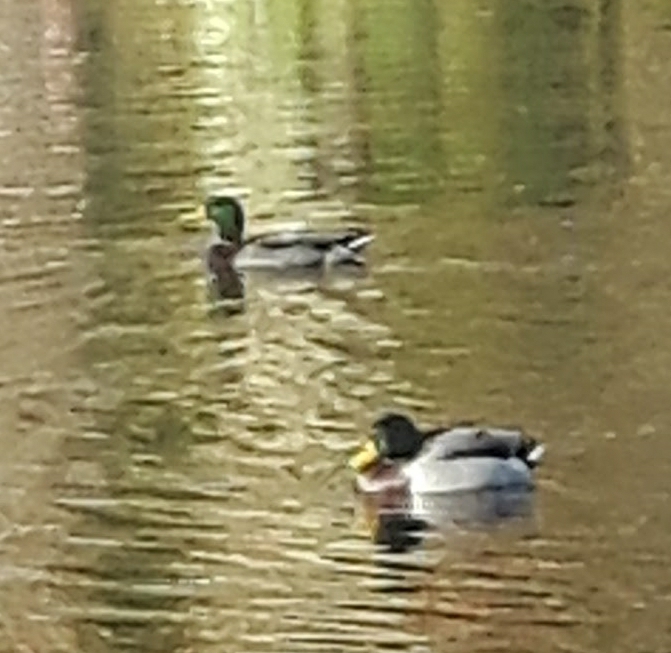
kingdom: Animalia
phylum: Chordata
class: Aves
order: Anseriformes
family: Anatidae
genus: Anas
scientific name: Anas platyrhynchos
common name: Mallard
